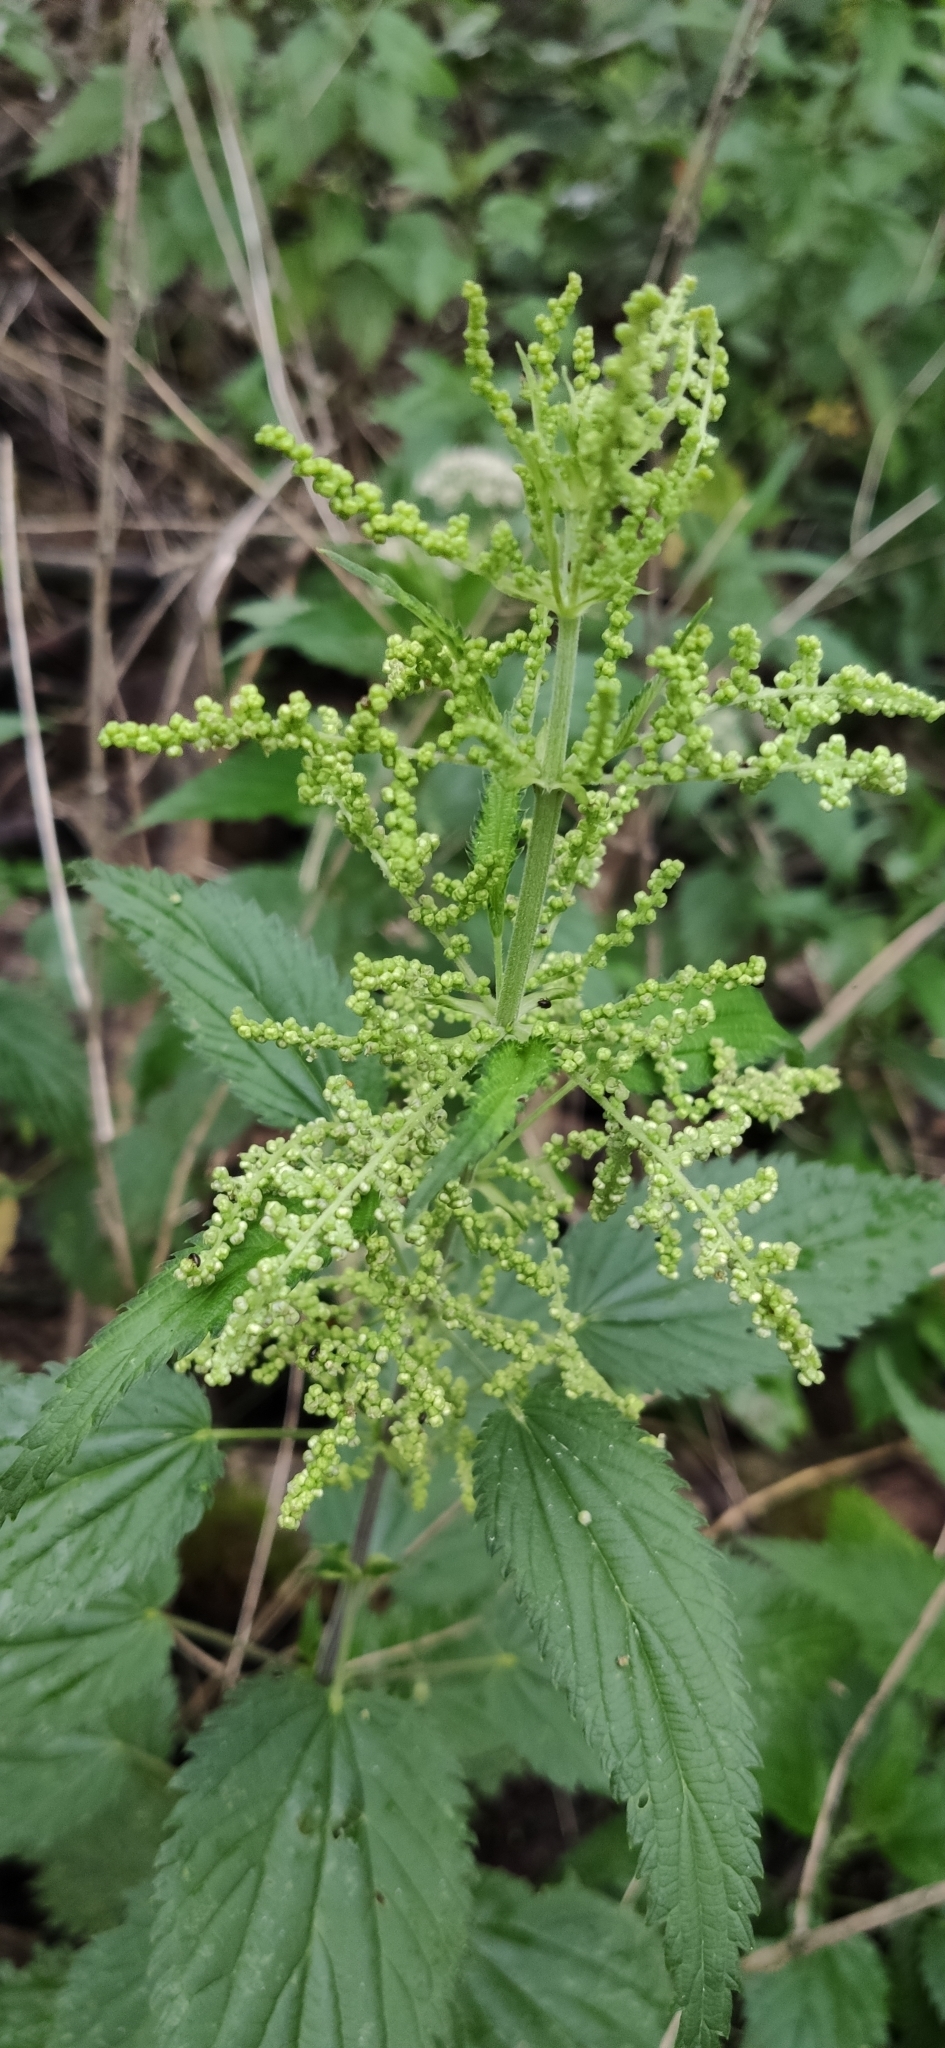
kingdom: Plantae
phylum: Tracheophyta
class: Magnoliopsida
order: Rosales
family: Urticaceae
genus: Urtica
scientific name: Urtica dioica
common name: Common nettle
